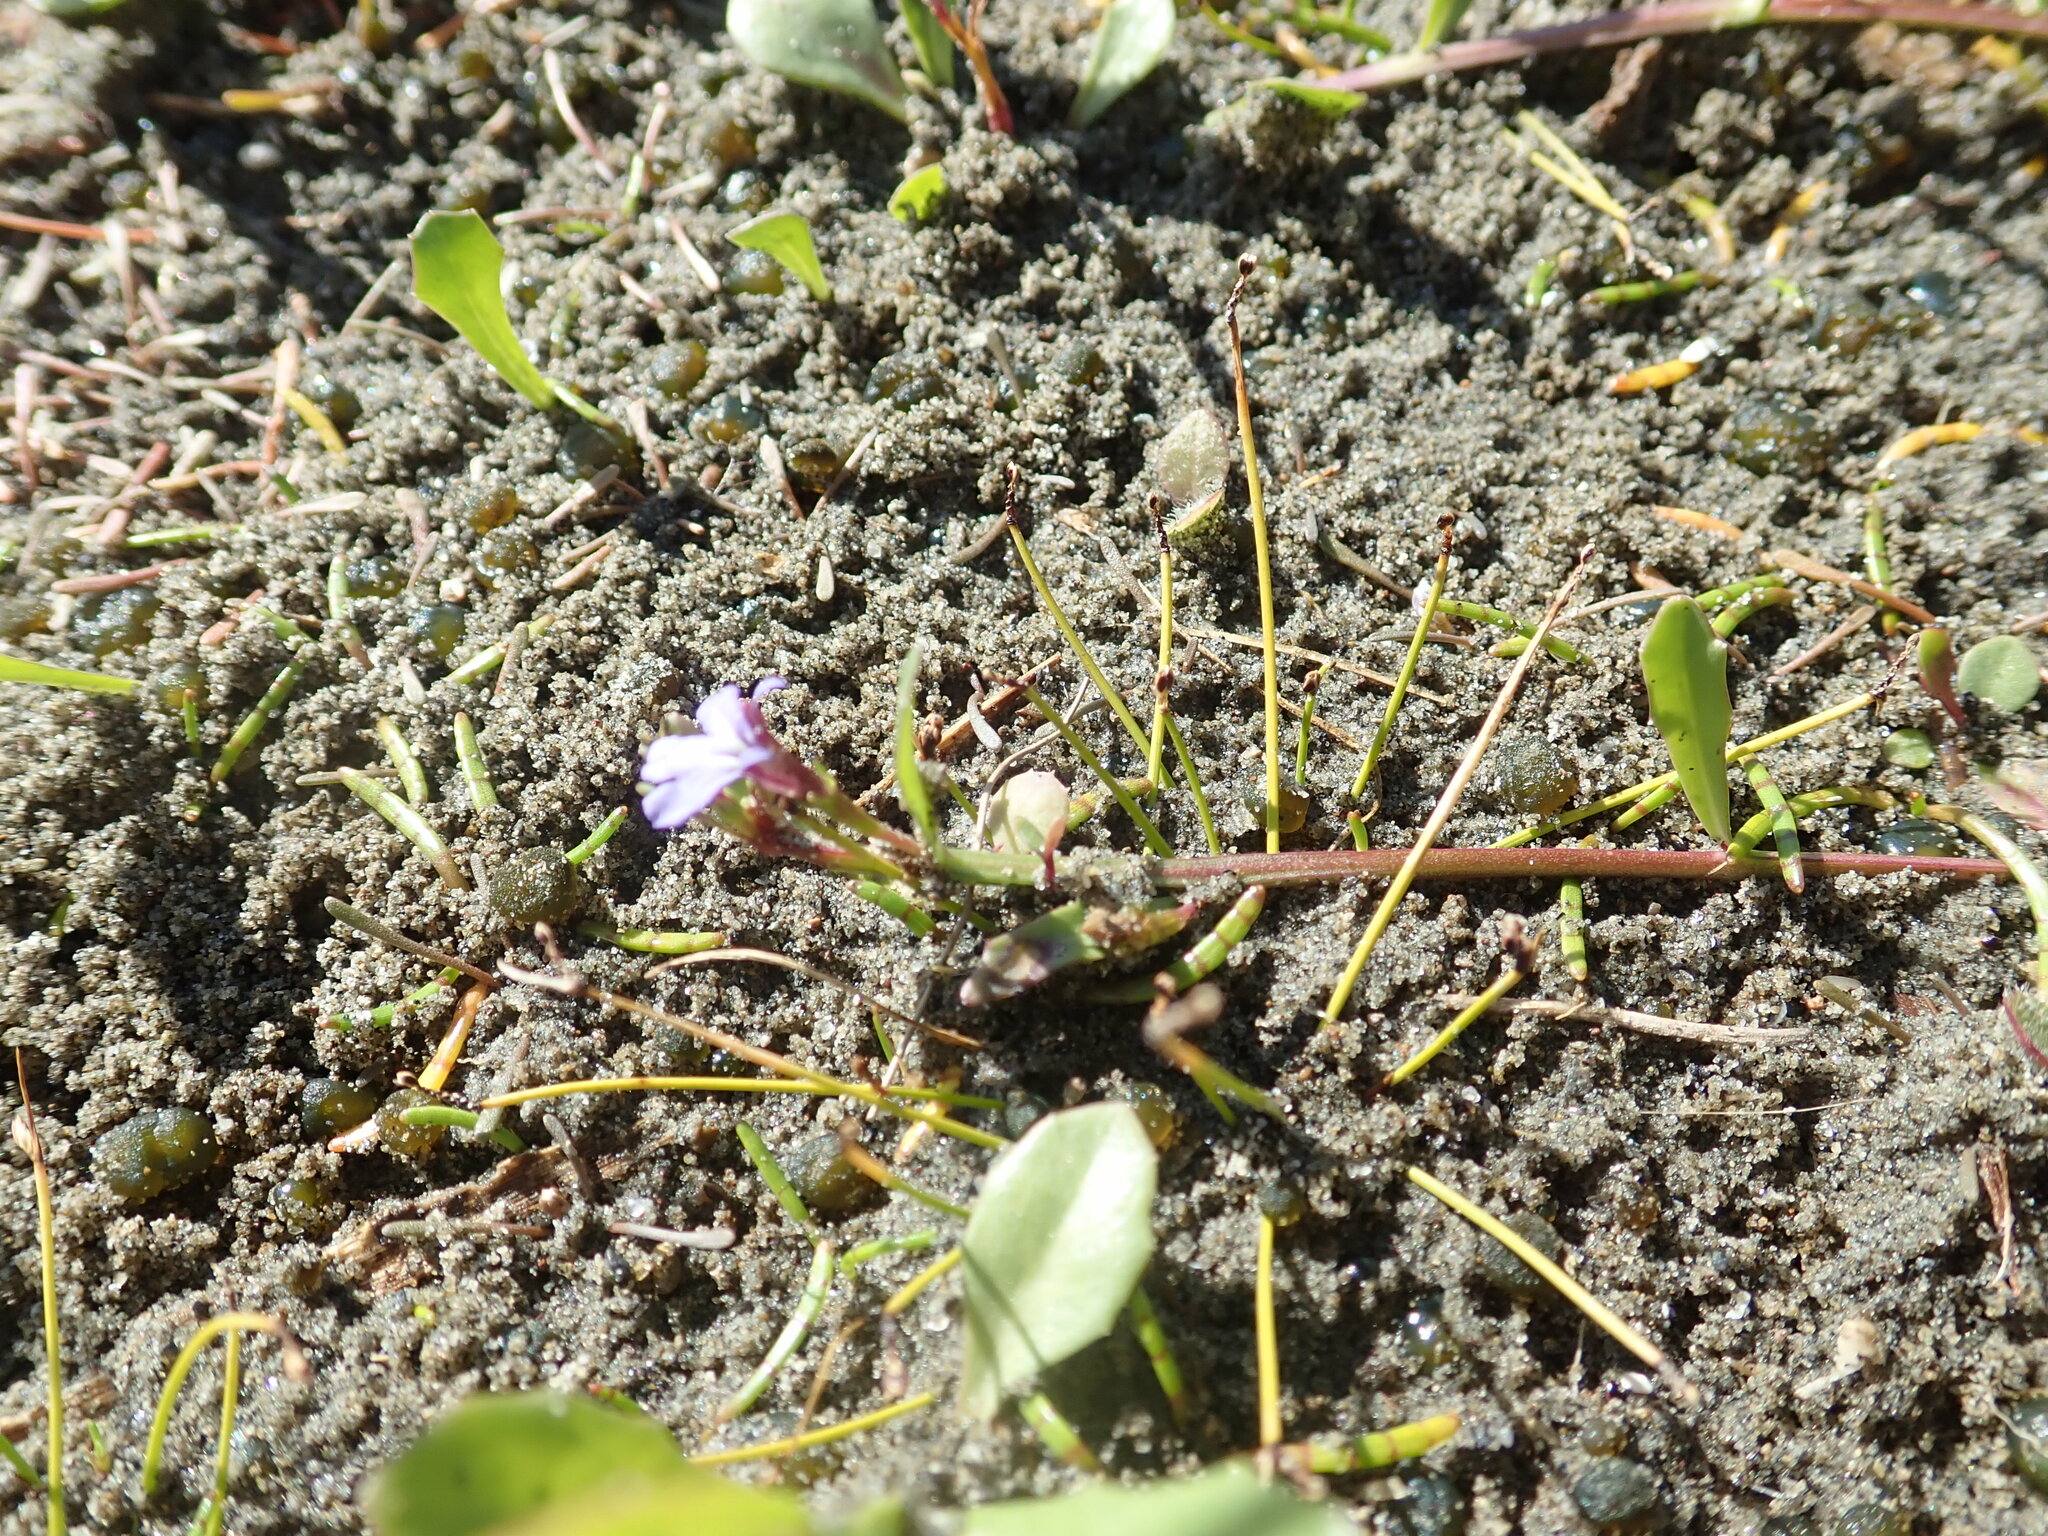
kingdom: Plantae
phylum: Tracheophyta
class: Magnoliopsida
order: Asterales
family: Campanulaceae
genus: Lobelia
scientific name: Lobelia anceps
